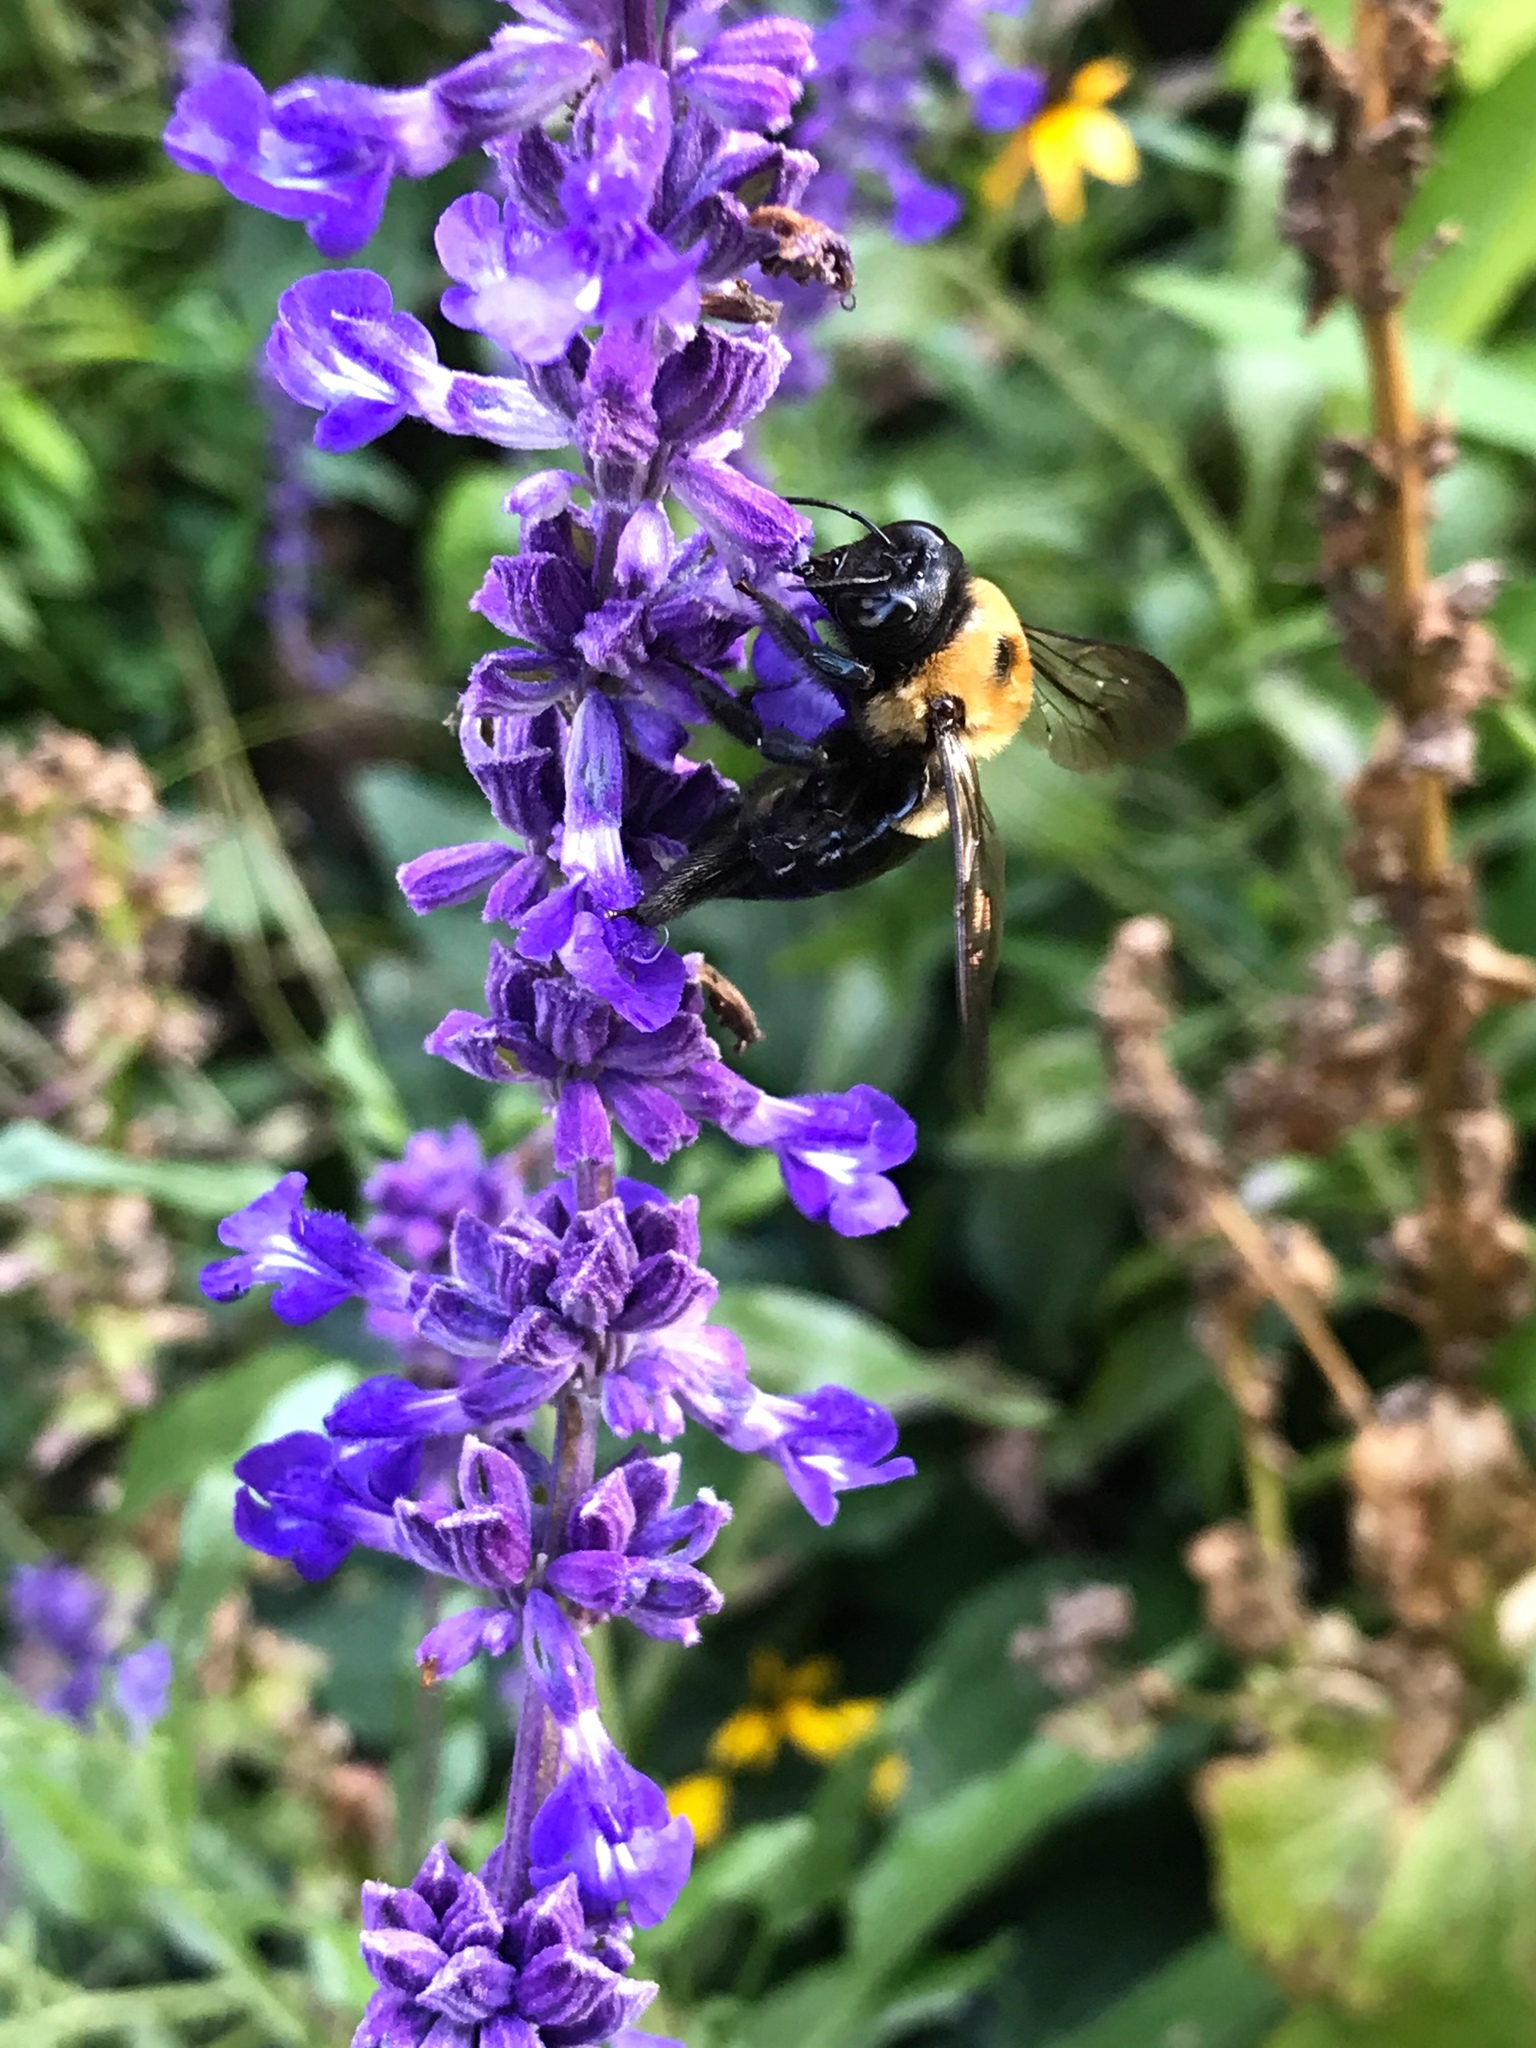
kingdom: Animalia
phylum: Arthropoda
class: Insecta
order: Hymenoptera
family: Apidae
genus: Xylocopa
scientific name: Xylocopa virginica
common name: Carpenter bee
